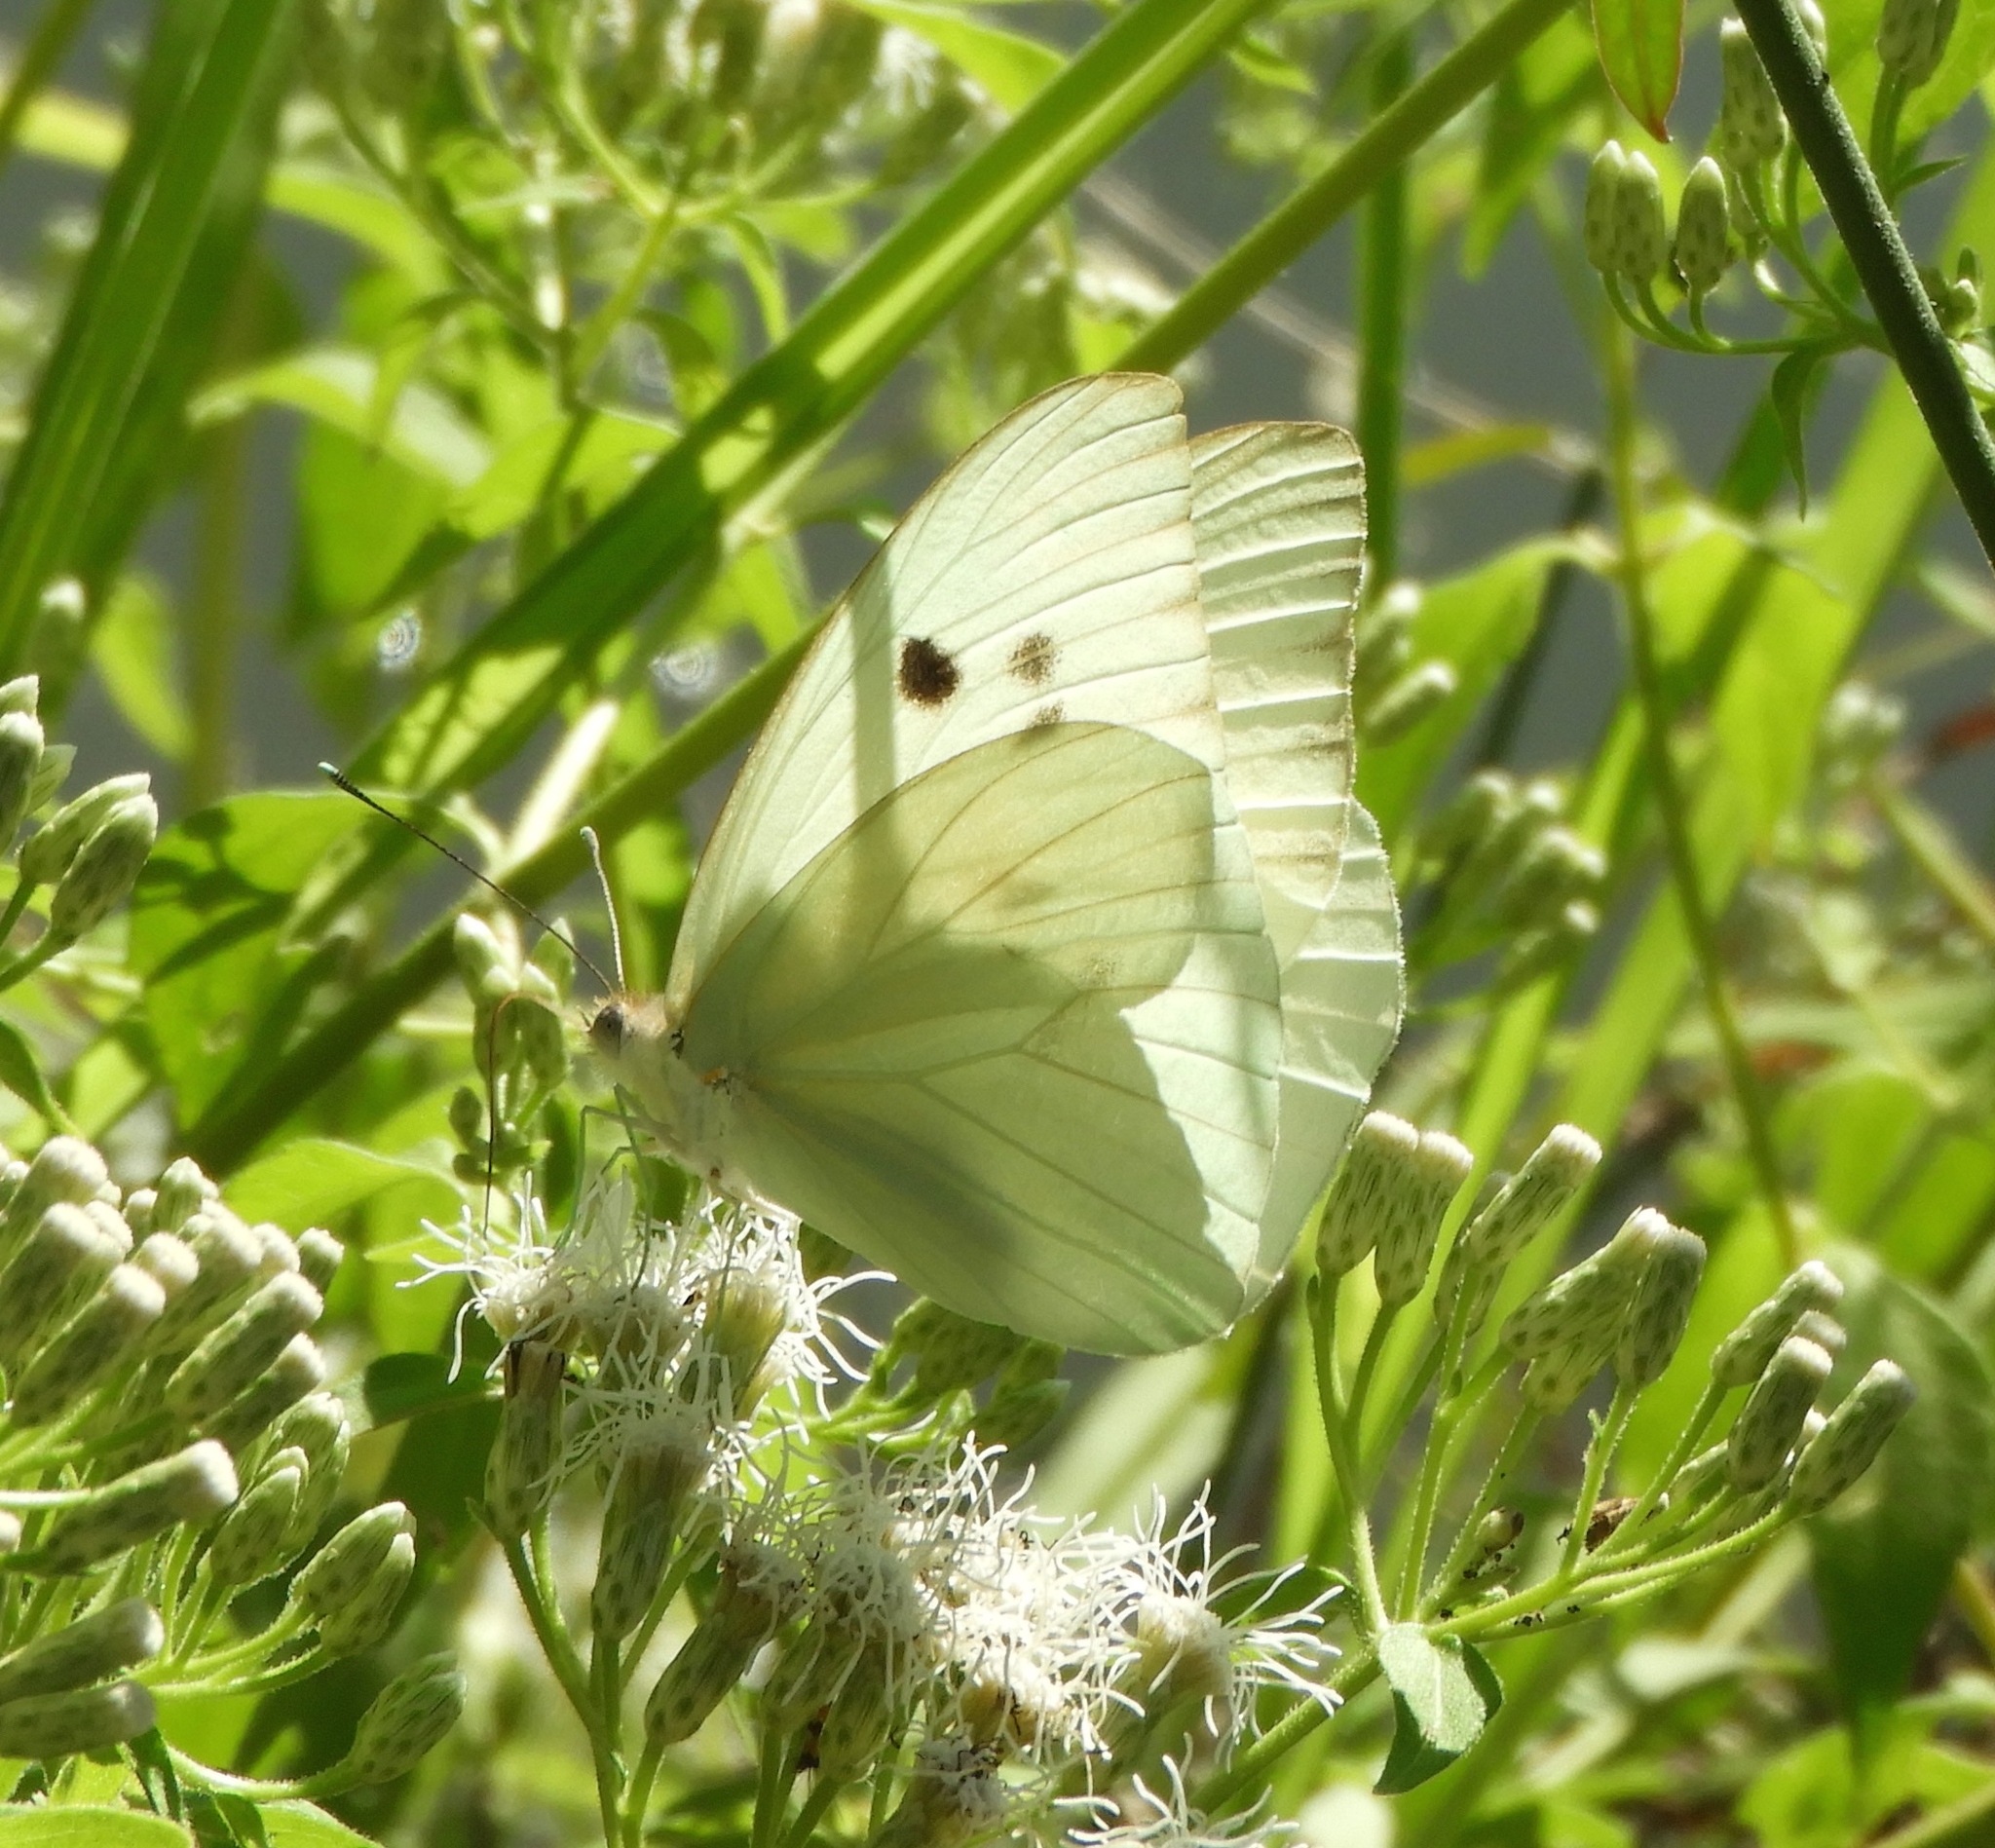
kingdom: Animalia
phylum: Arthropoda
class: Insecta
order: Lepidoptera
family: Pieridae
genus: Ganyra
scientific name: Ganyra josephina
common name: Giant white
